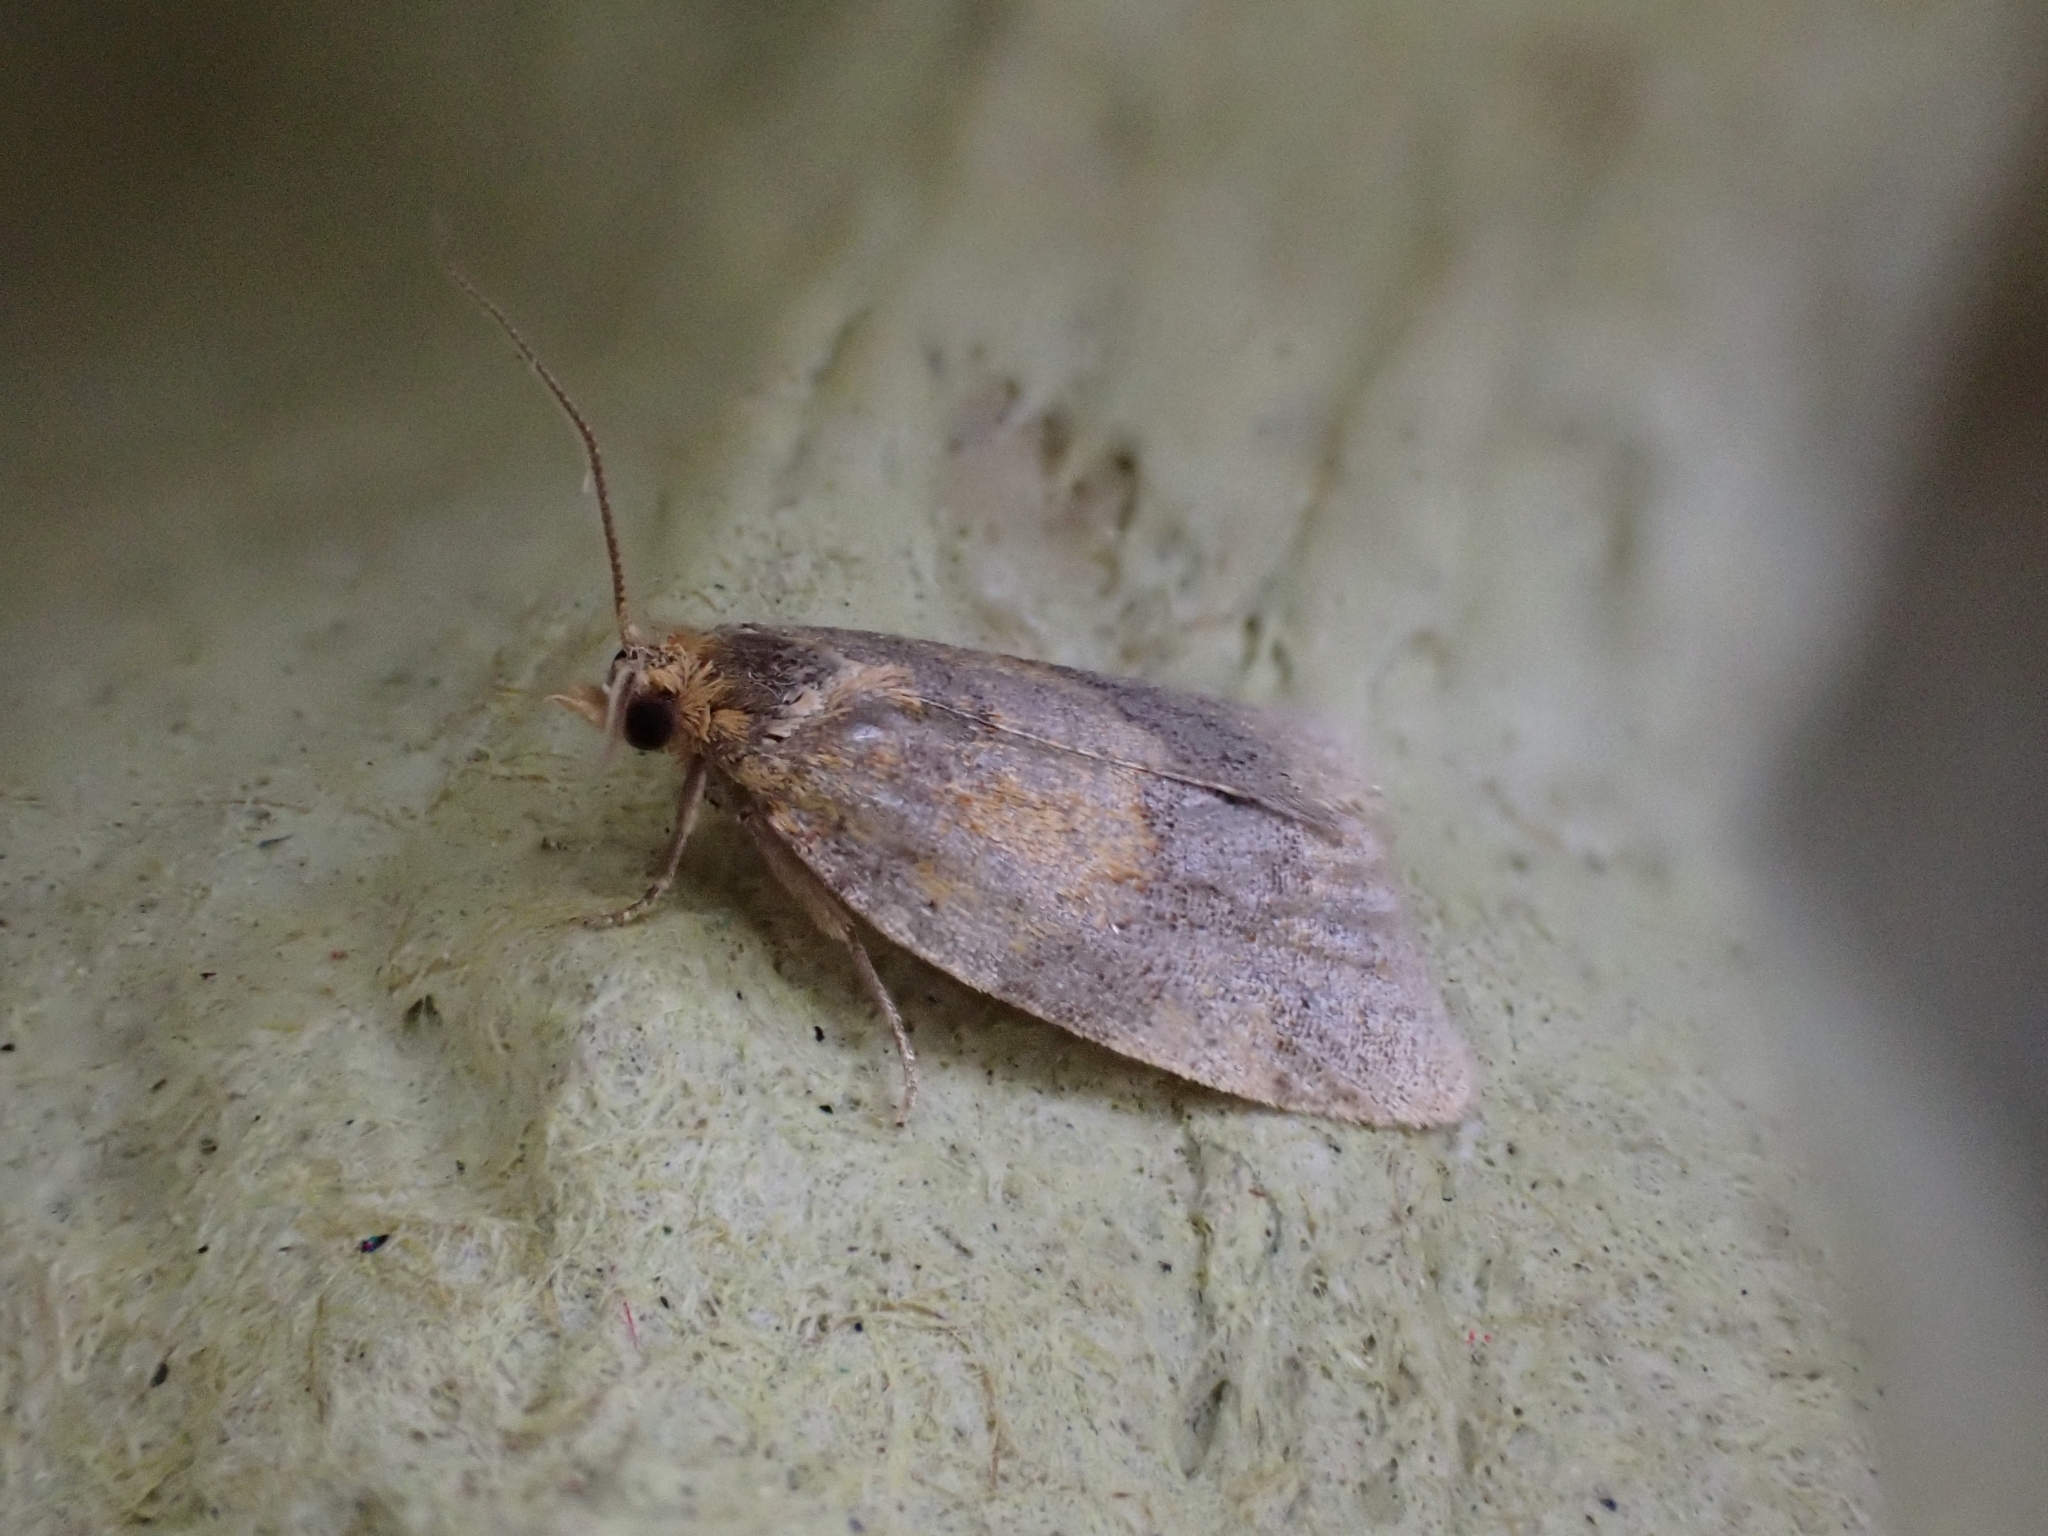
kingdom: Animalia
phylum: Arthropoda
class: Insecta
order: Lepidoptera
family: Tortricidae
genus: Epagoge
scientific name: Epagoge grotiana
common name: Brown-barred twist
